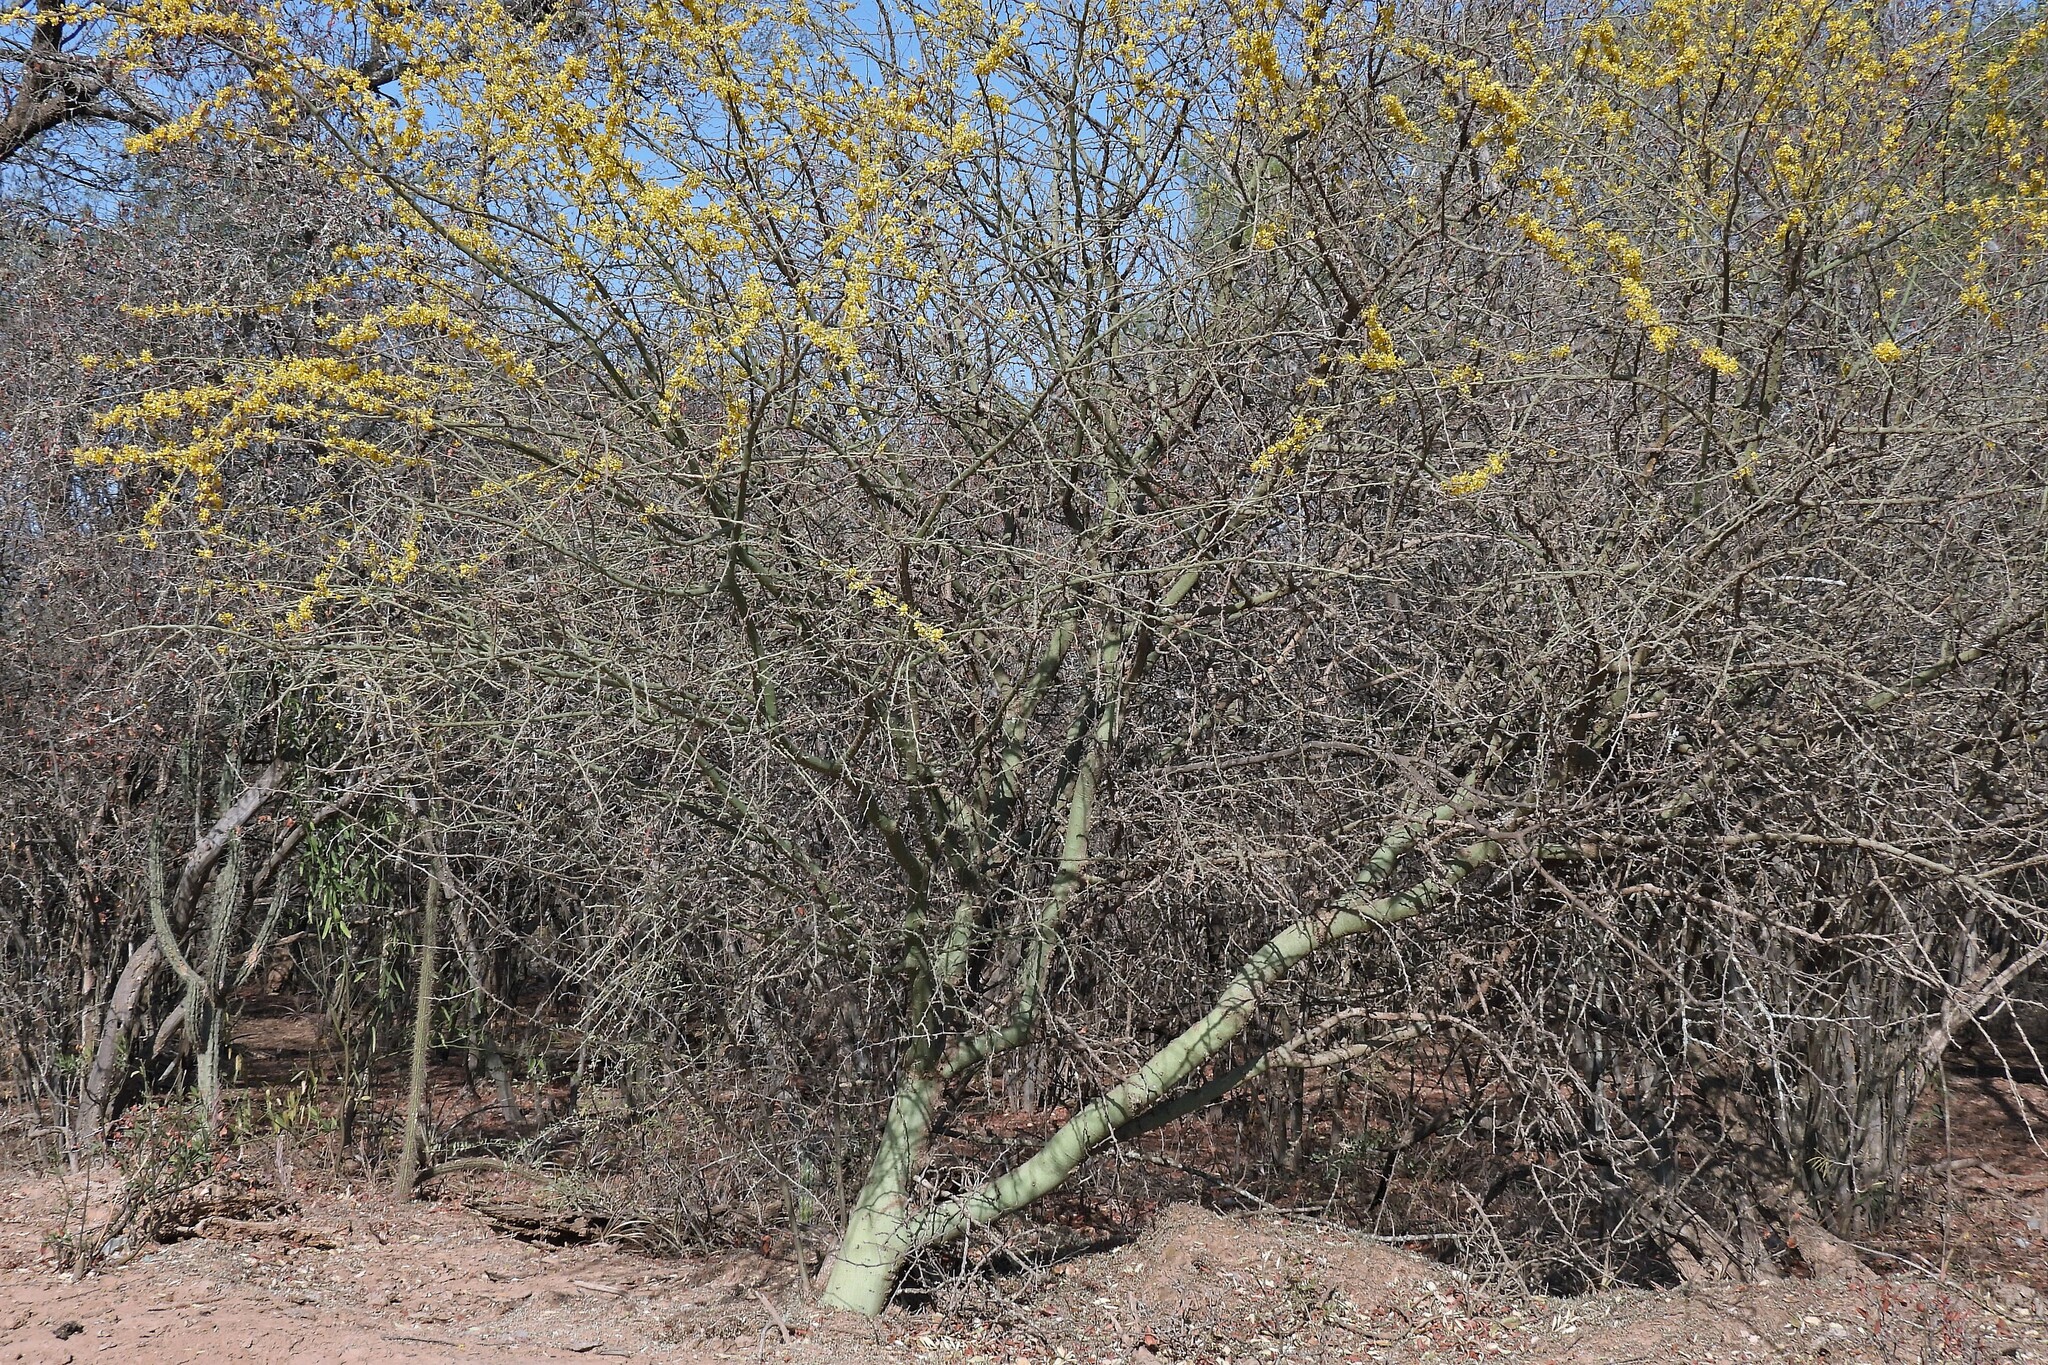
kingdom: Plantae
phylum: Tracheophyta
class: Magnoliopsida
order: Fabales
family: Fabaceae
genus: Parkinsonia
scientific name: Parkinsonia praecox
